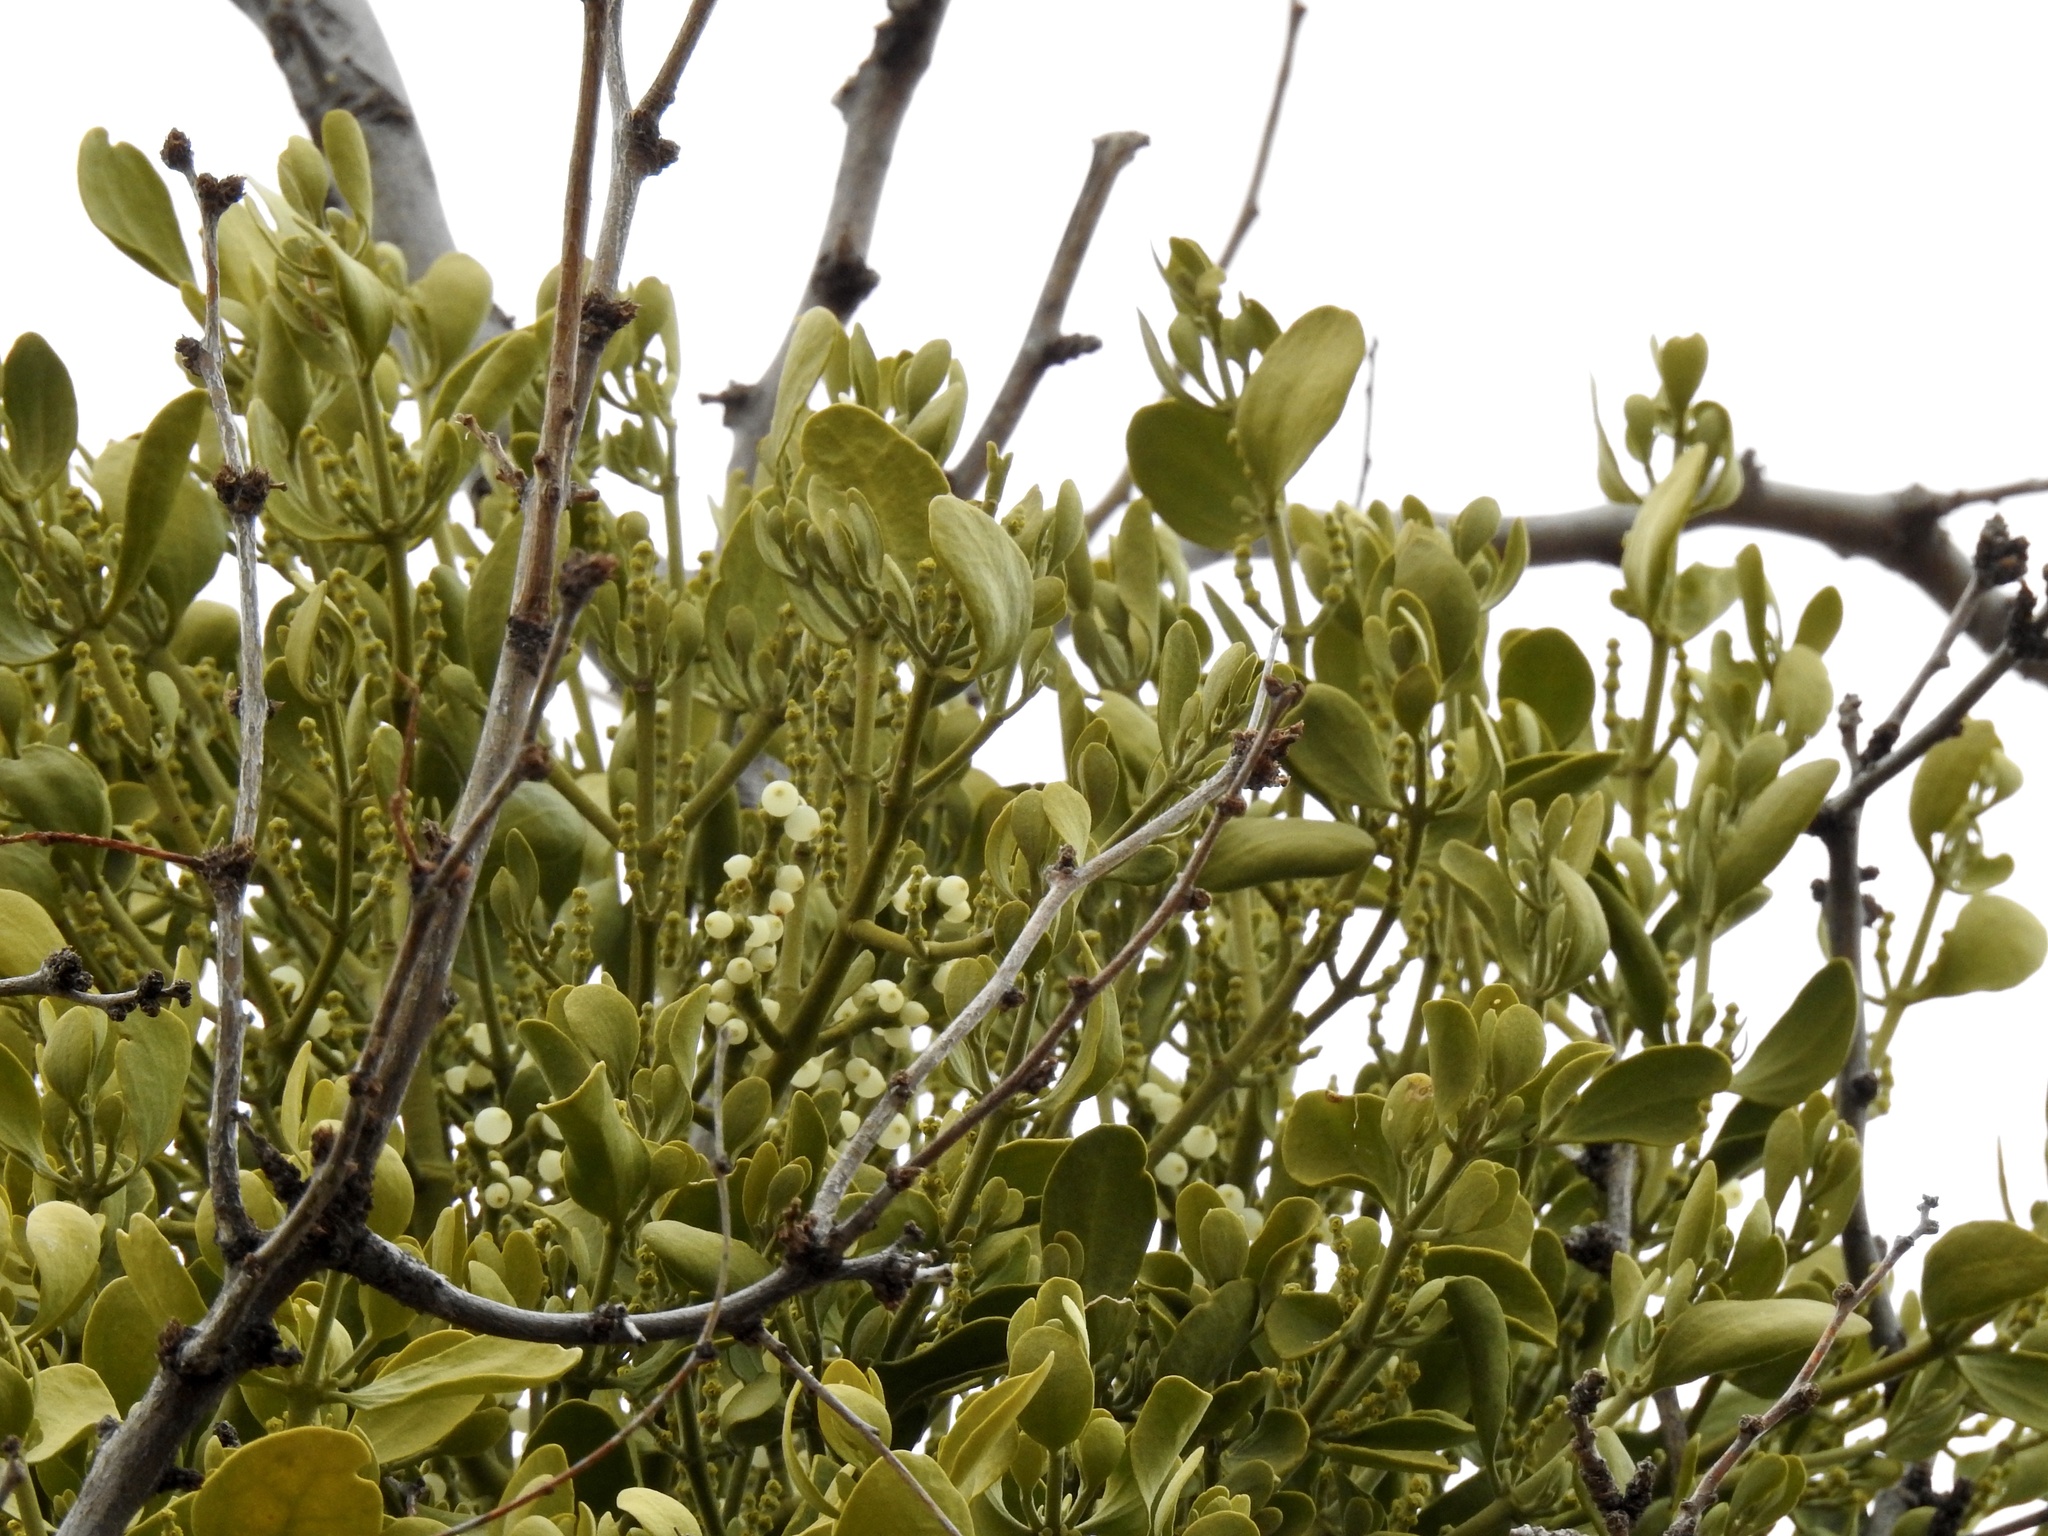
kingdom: Plantae
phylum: Tracheophyta
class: Magnoliopsida
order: Santalales
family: Viscaceae
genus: Phoradendron
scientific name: Phoradendron leucarpum
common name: Pacific mistletoe
